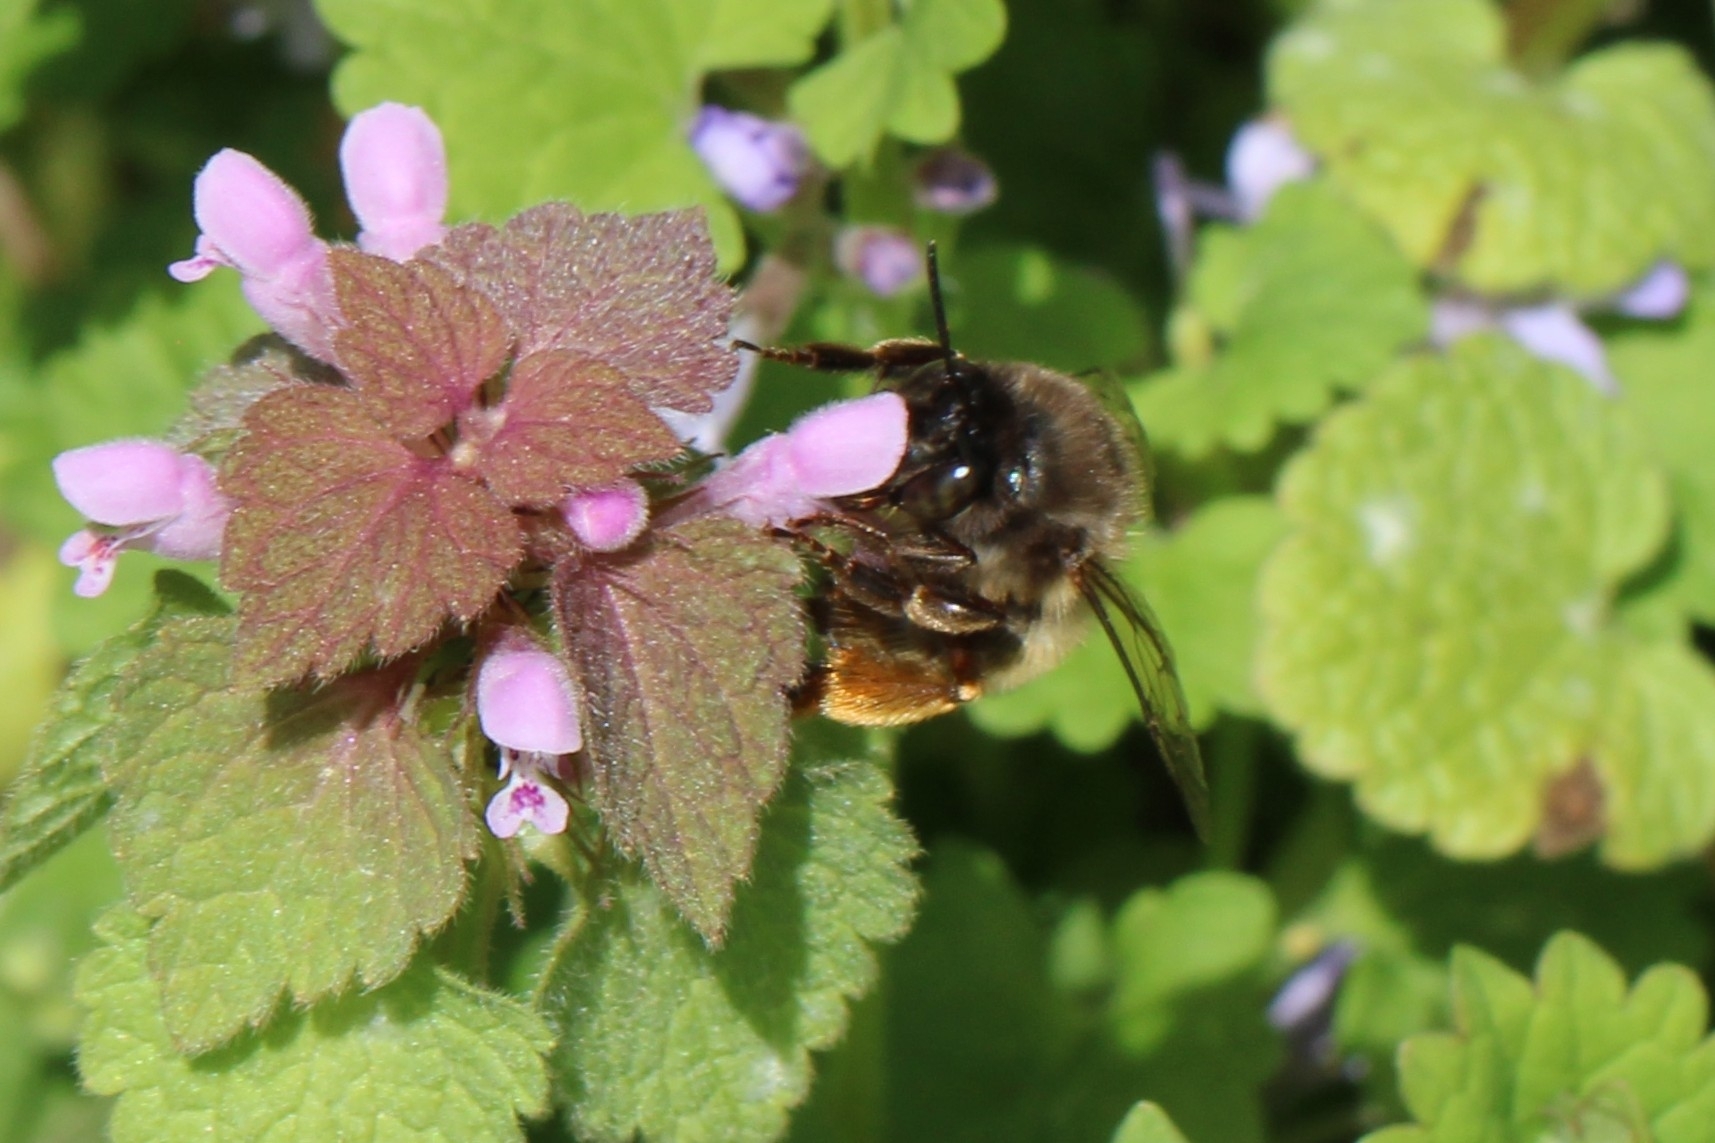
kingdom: Animalia
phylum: Arthropoda
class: Insecta
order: Hymenoptera
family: Apidae
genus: Anthophora
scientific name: Anthophora villosula
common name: Asian shaggy digger
